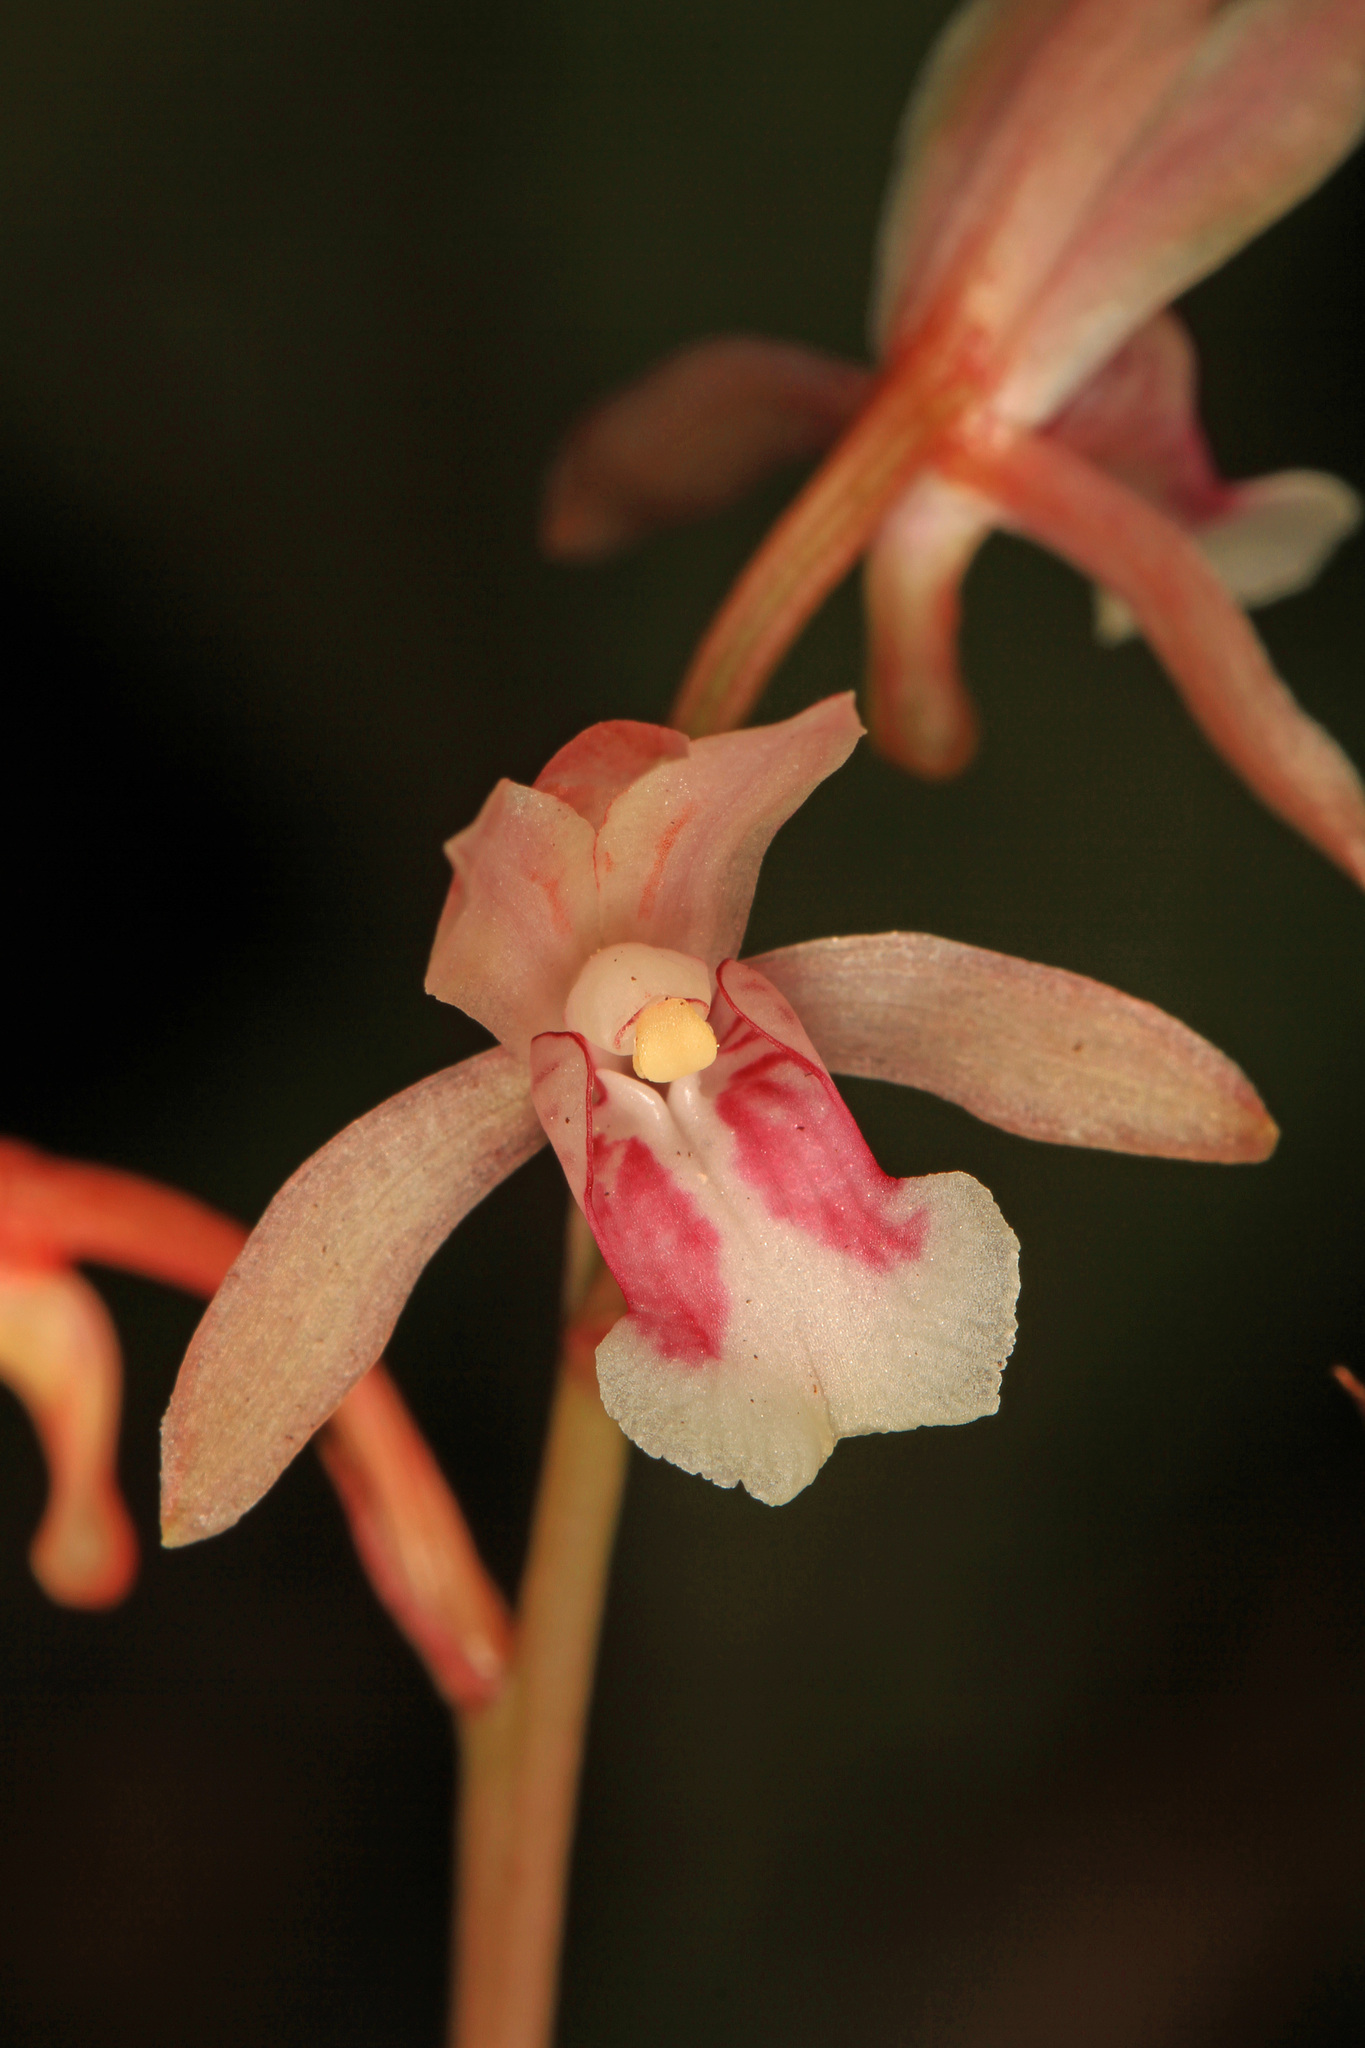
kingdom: Plantae
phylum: Tracheophyta
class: Liliopsida
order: Asparagales
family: Orchidaceae
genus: Eulophia
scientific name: Eulophia maculata
